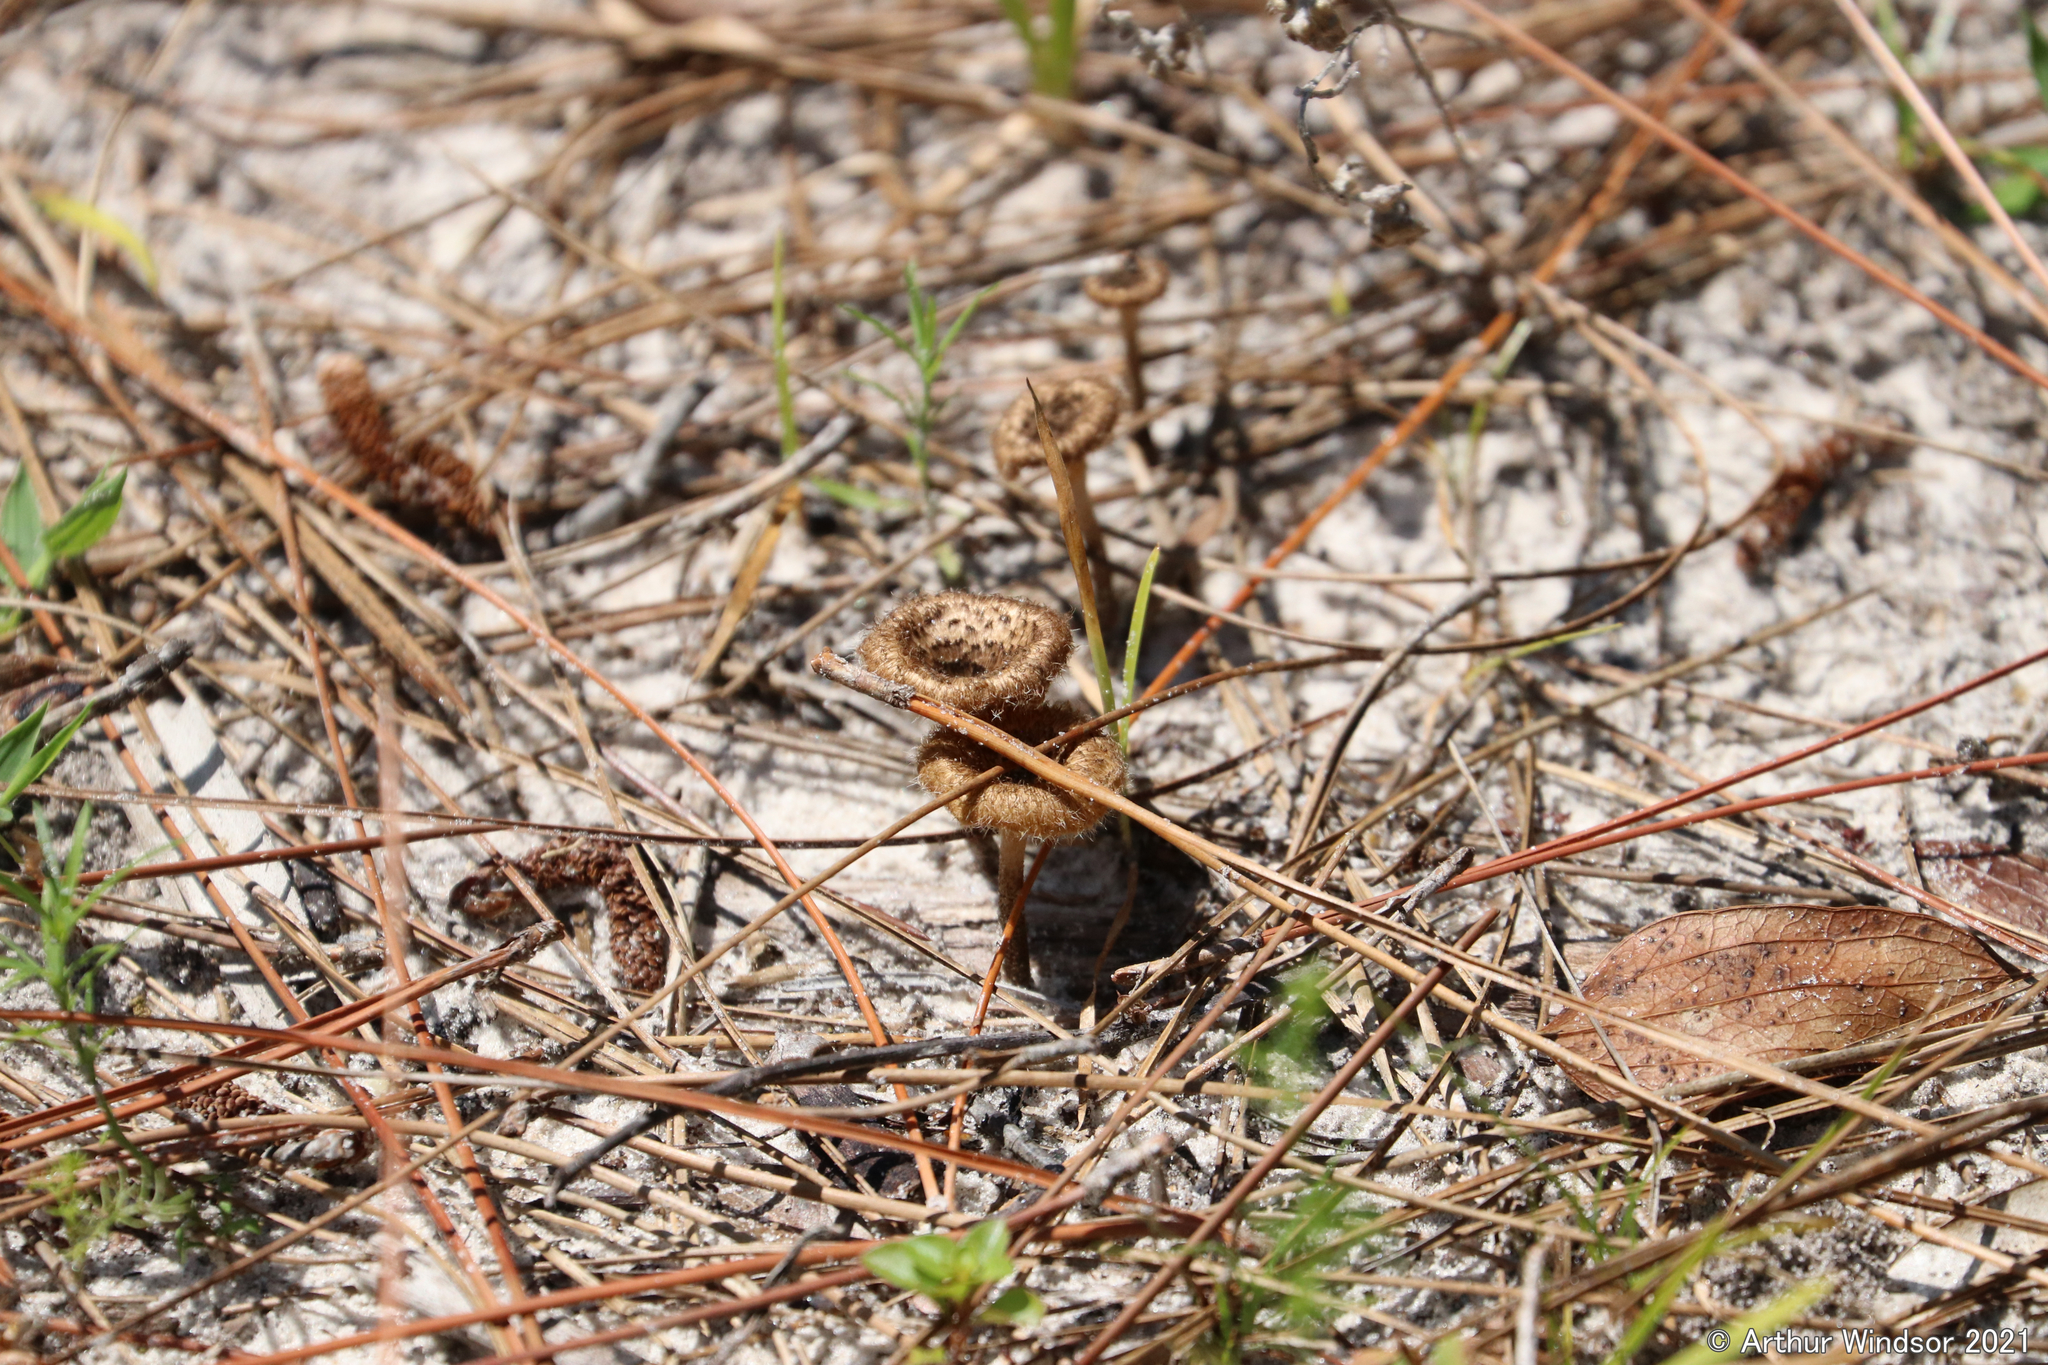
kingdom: Fungi
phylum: Basidiomycota
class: Agaricomycetes
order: Polyporales
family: Polyporaceae
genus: Lentinus
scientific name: Lentinus crinitus
